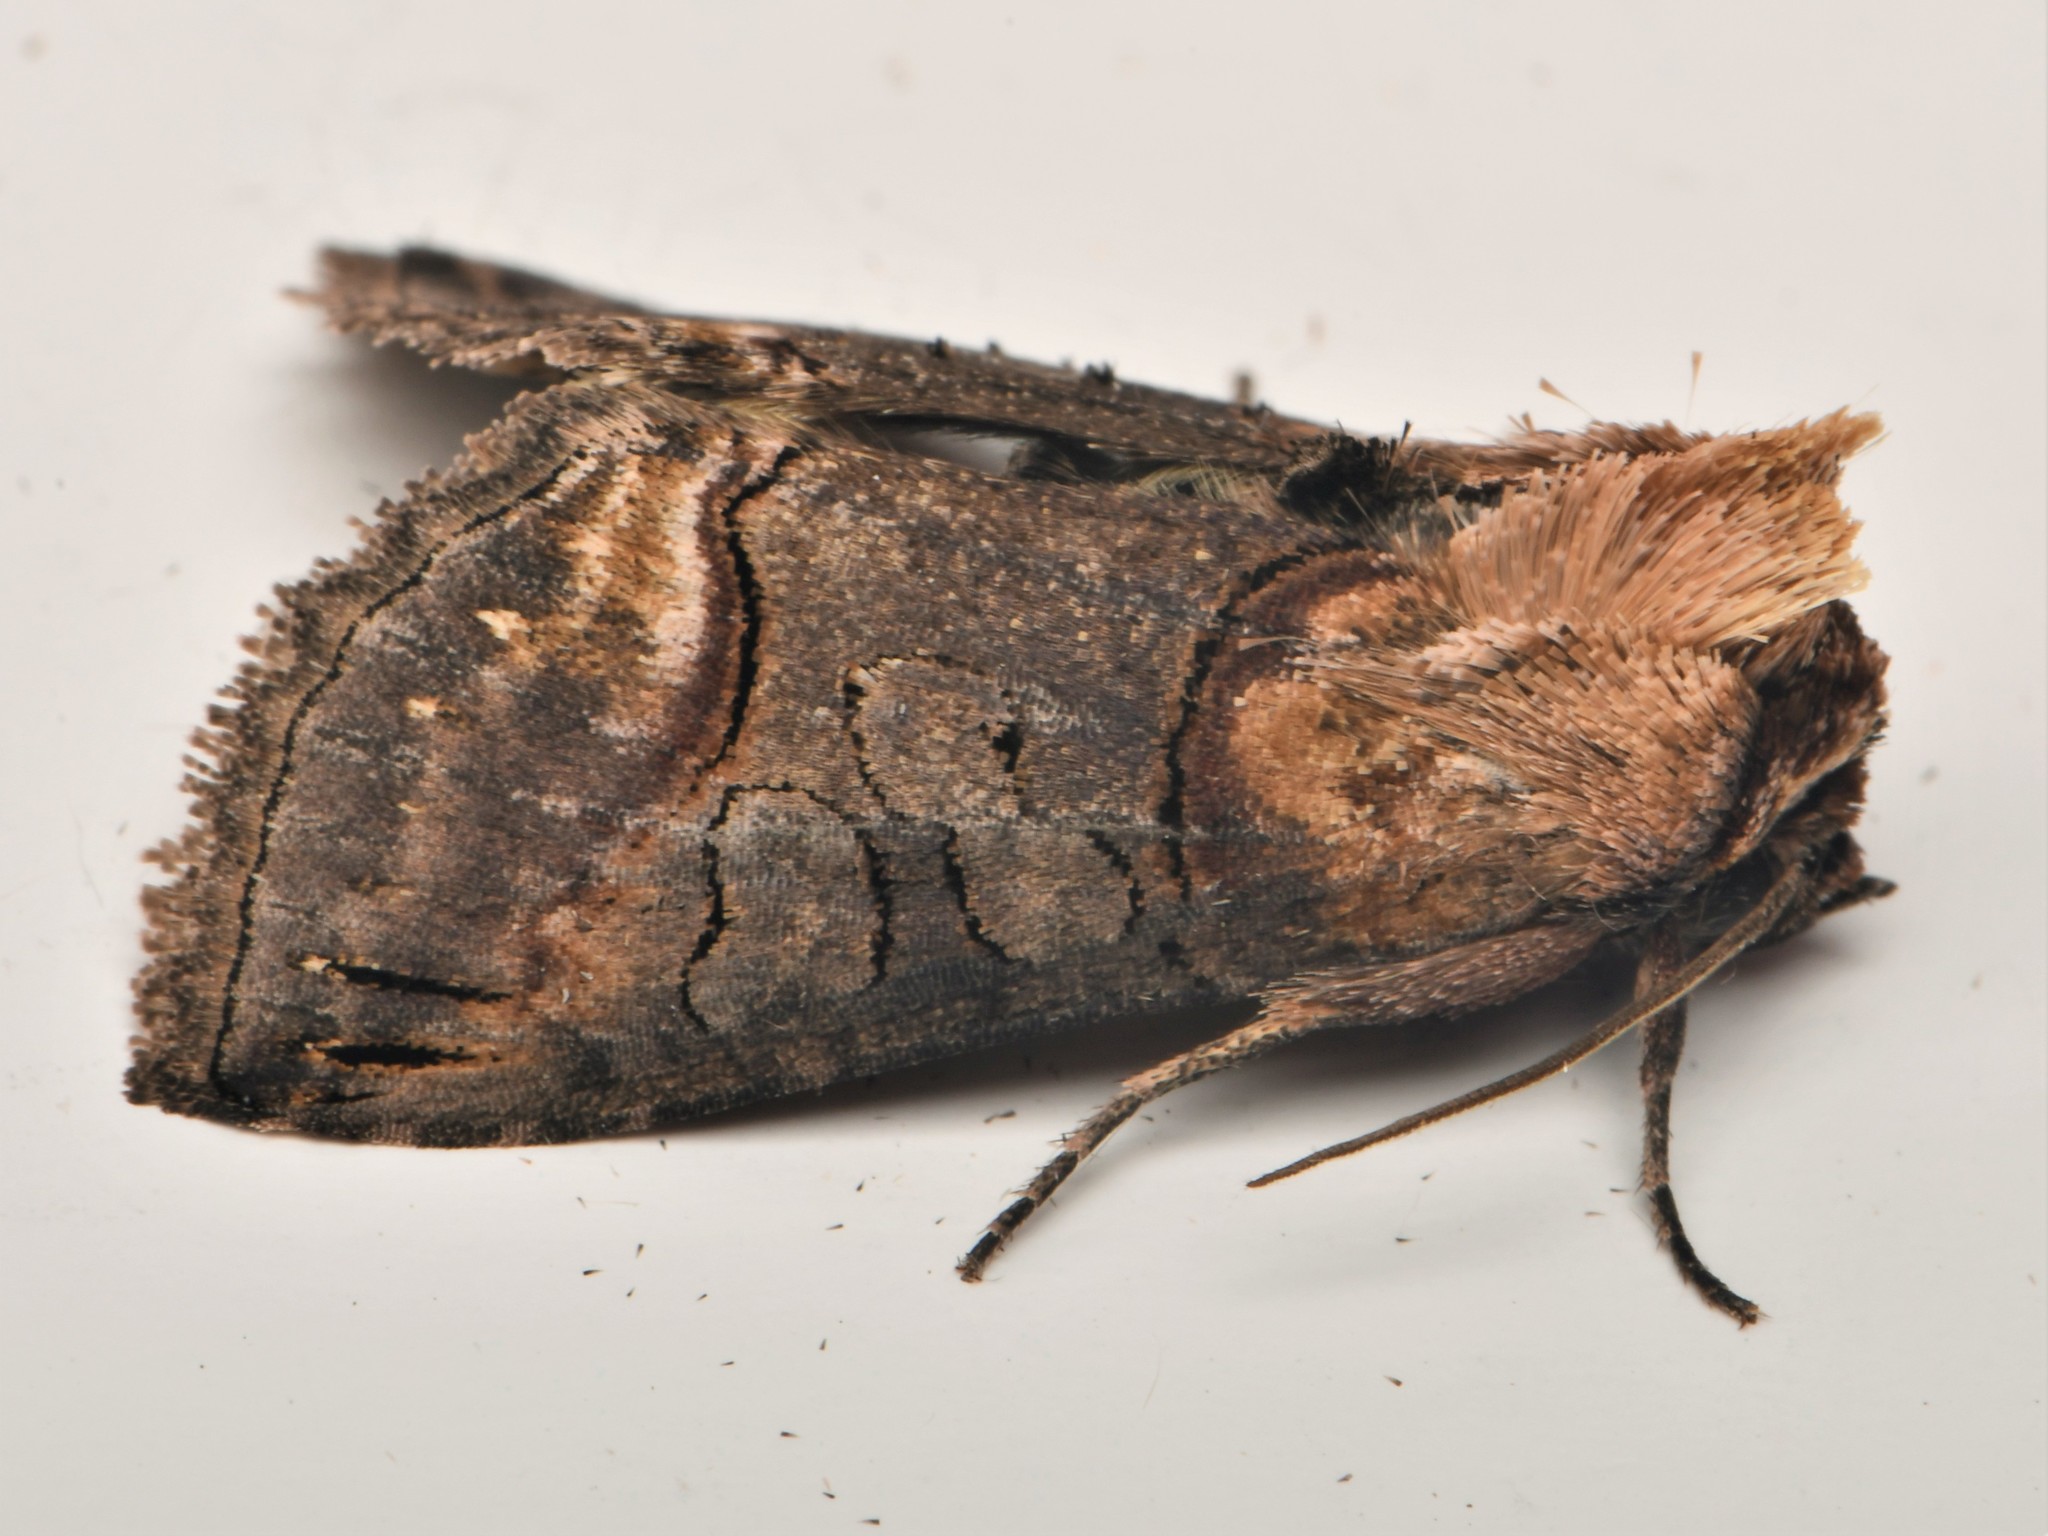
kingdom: Animalia
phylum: Arthropoda
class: Insecta
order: Lepidoptera
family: Noctuidae
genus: Abrostola
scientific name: Abrostola triplasia
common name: Dark spectacle
